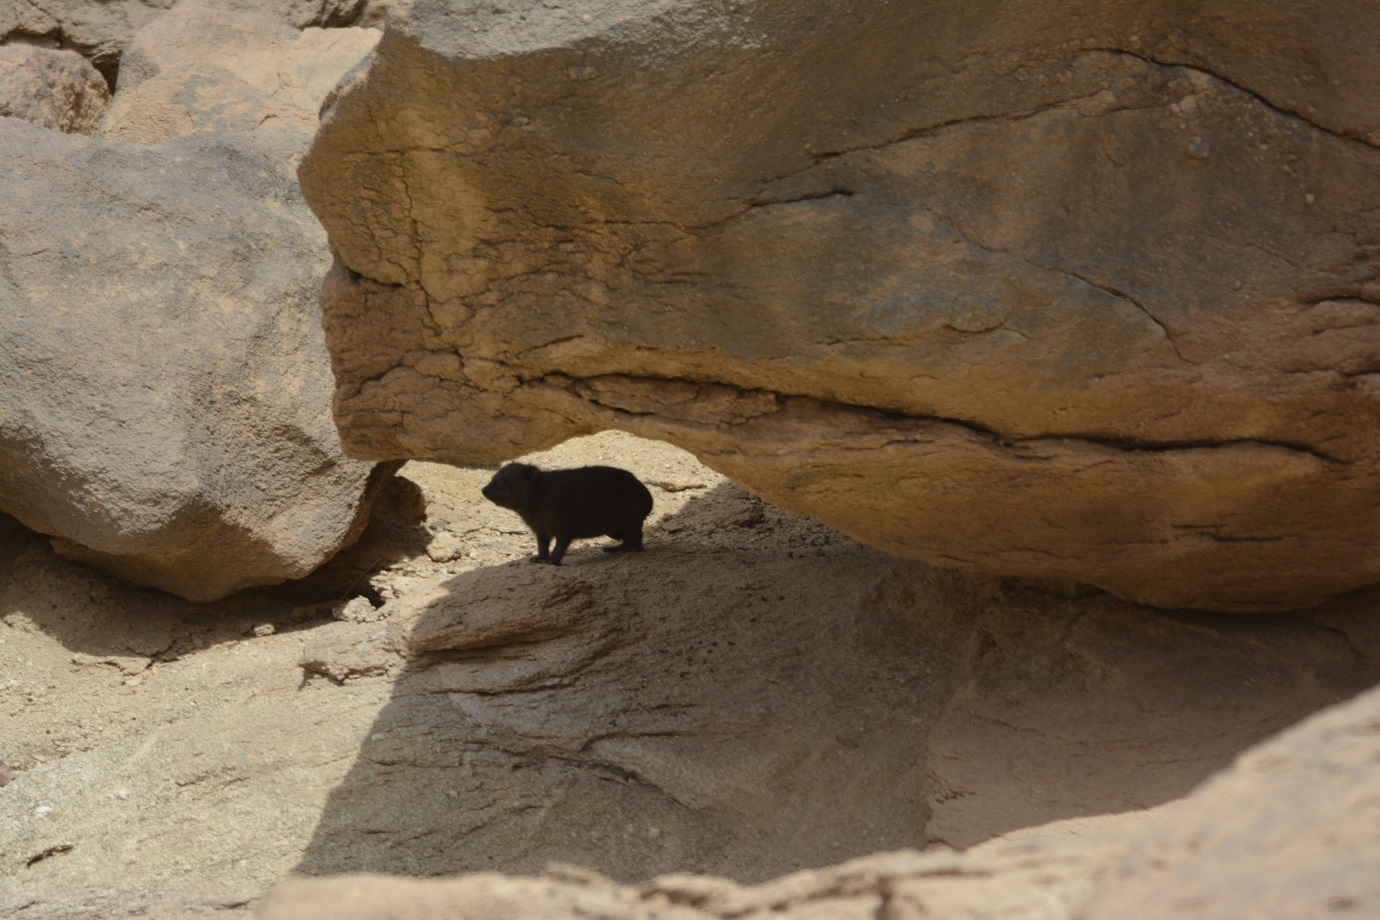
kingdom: Animalia
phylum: Chordata
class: Mammalia
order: Hyracoidea
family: Procaviidae
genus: Procavia
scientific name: Procavia capensis
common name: Rock hyrax
